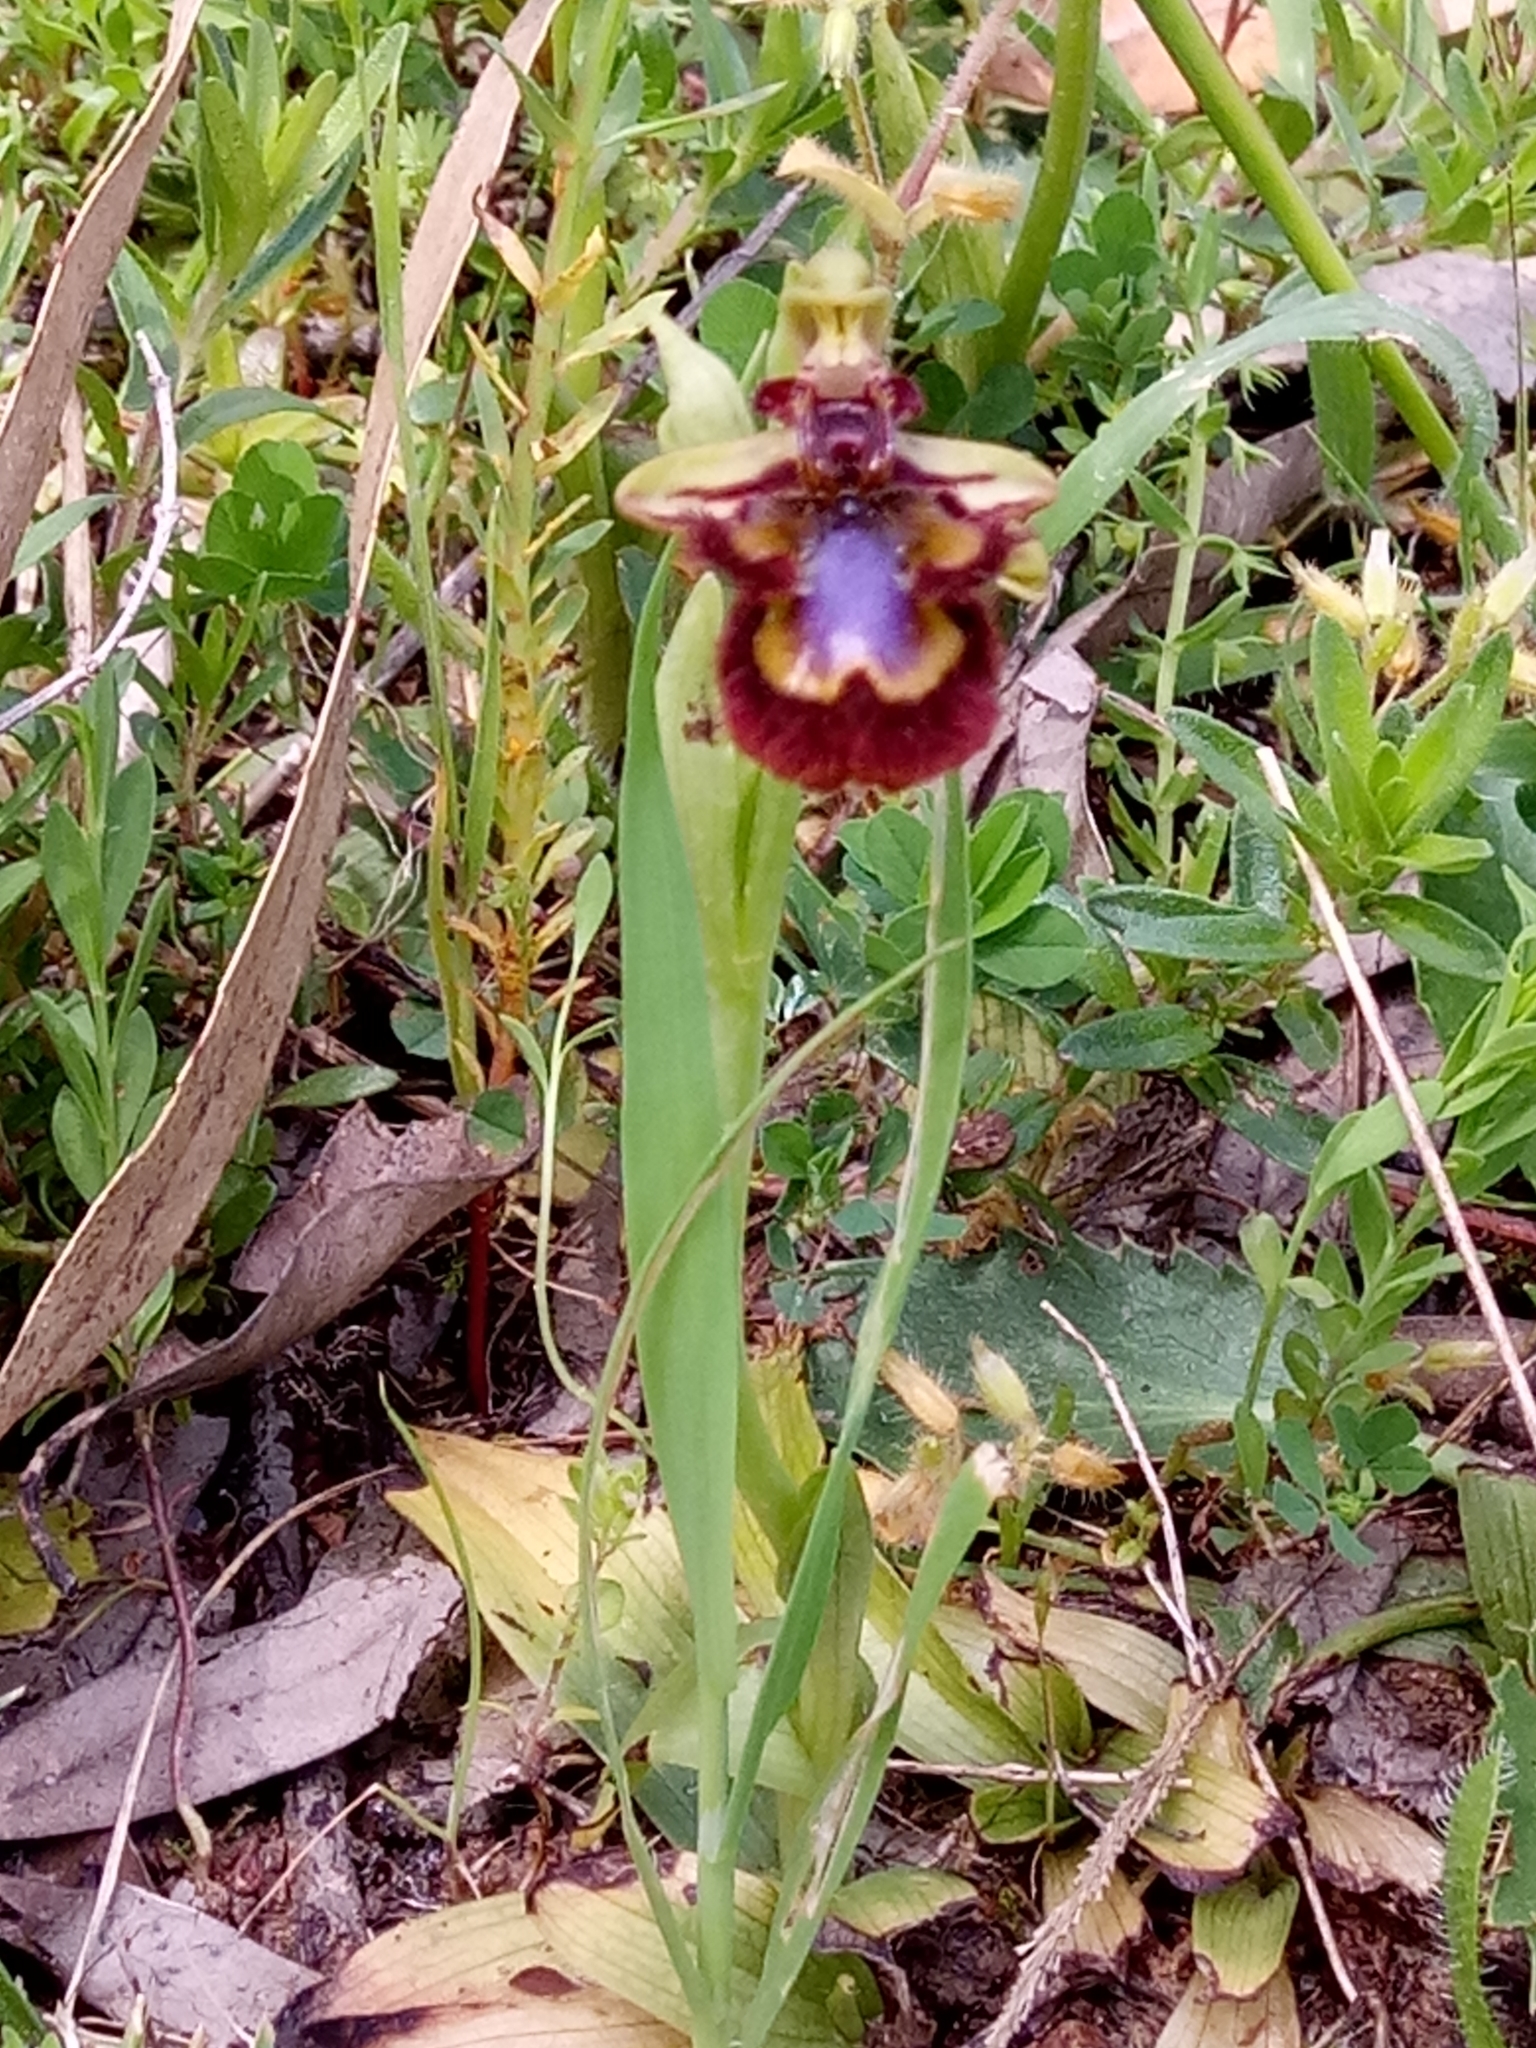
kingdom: Plantae
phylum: Tracheophyta
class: Liliopsida
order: Asparagales
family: Orchidaceae
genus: Ophrys
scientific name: Ophrys speculum
